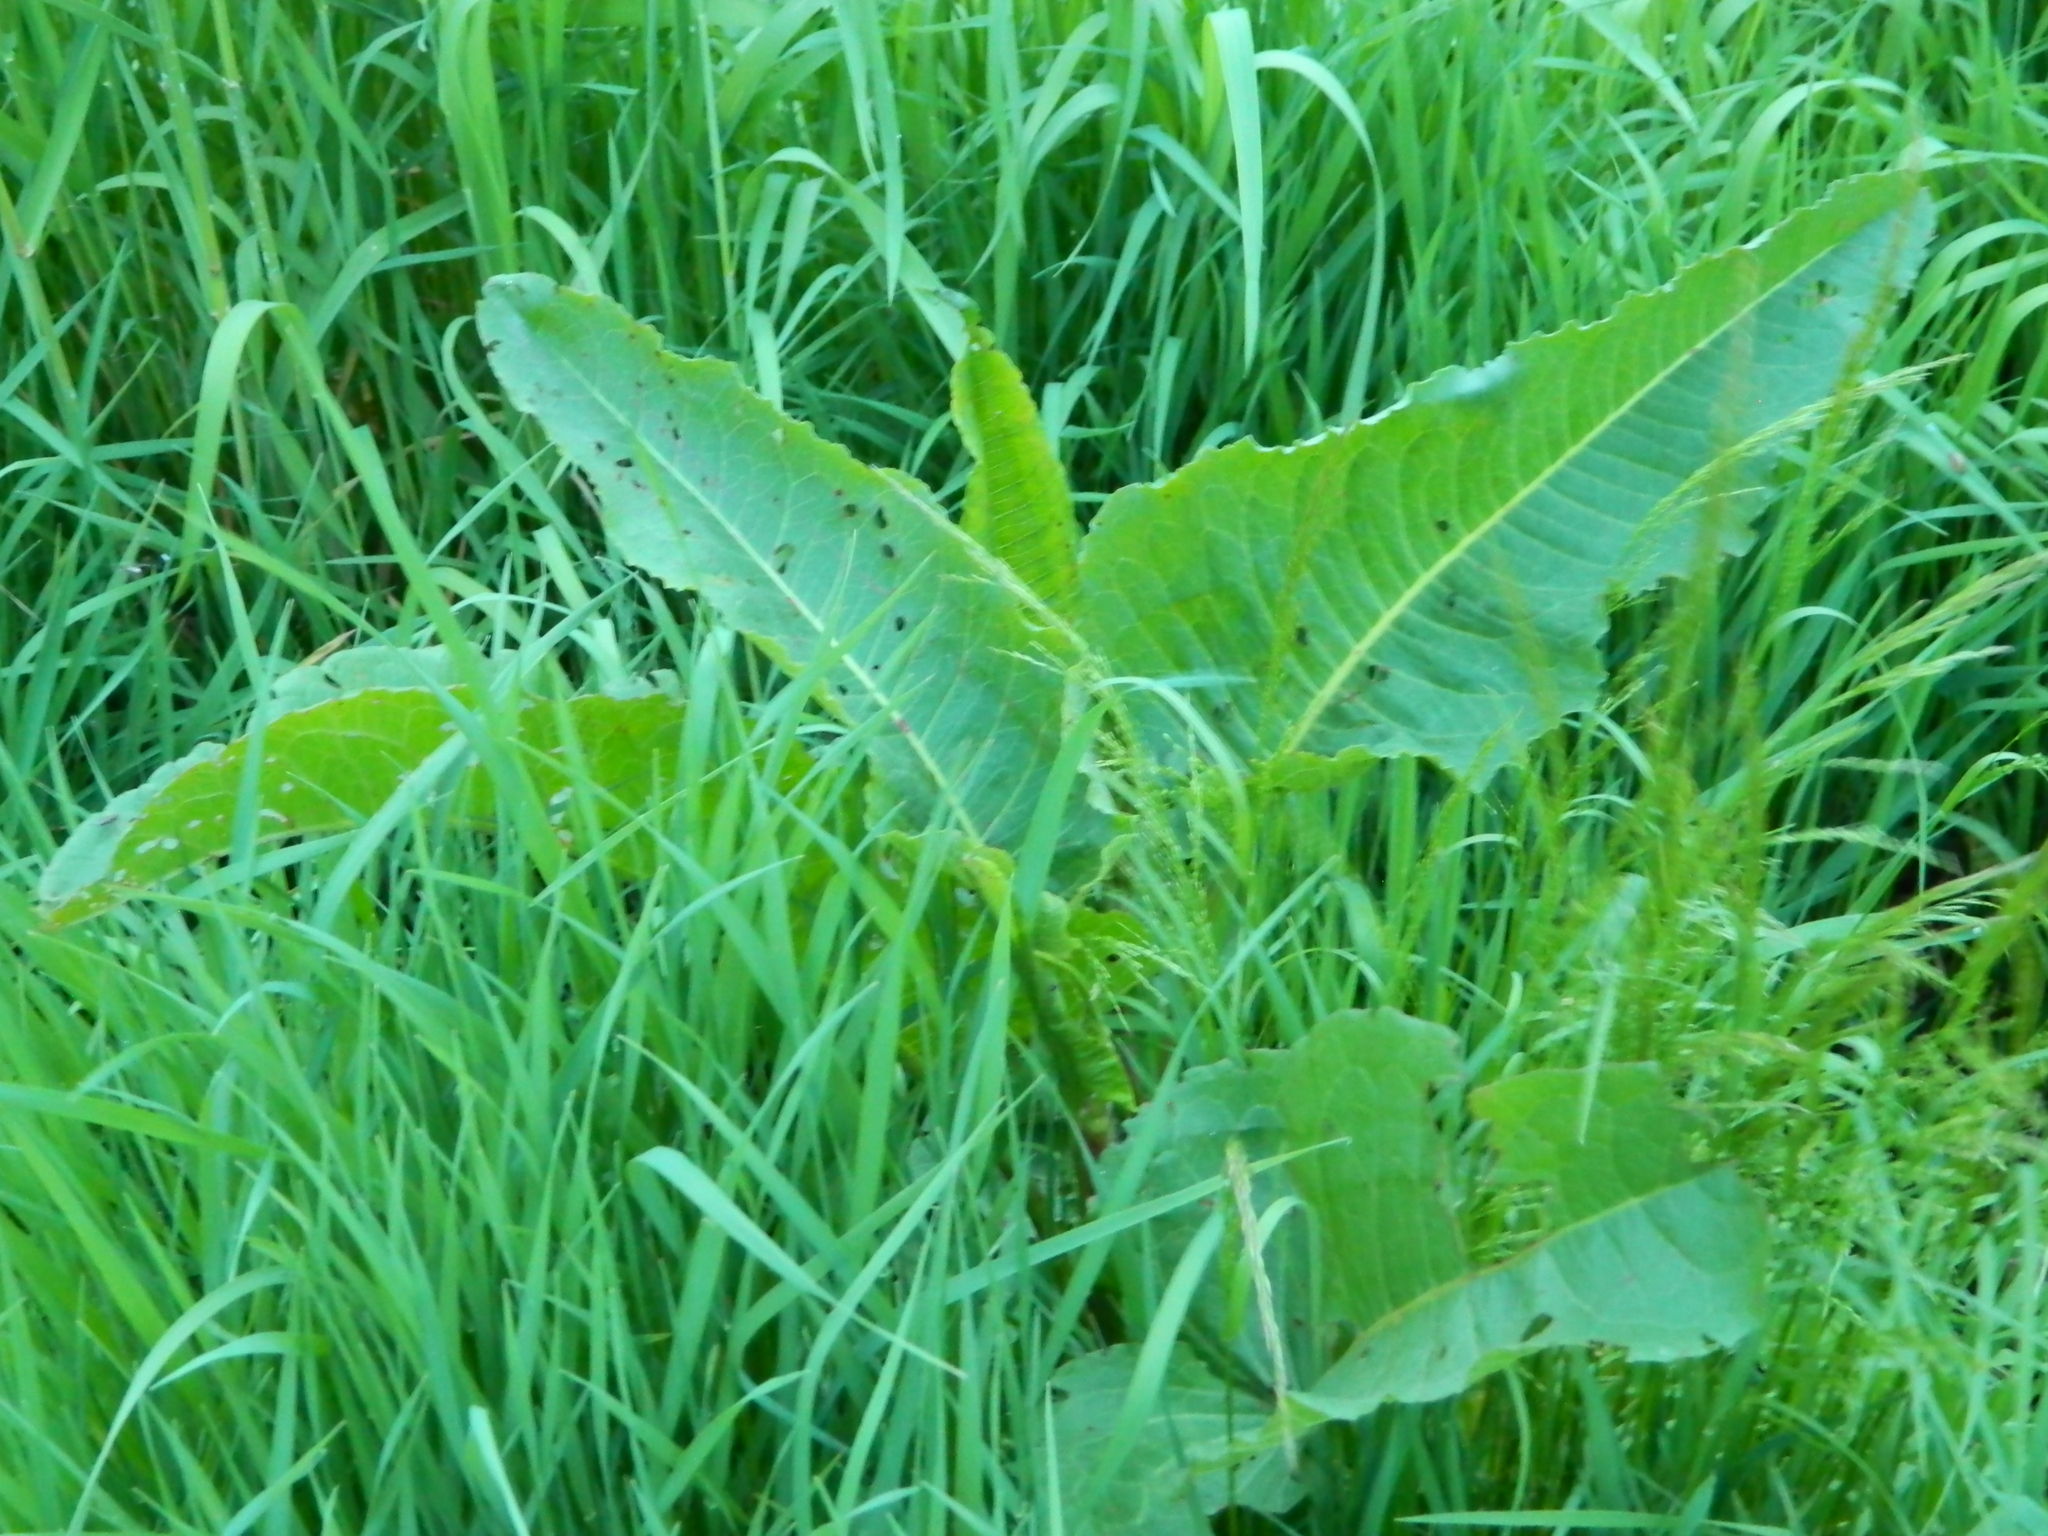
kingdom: Plantae
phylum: Tracheophyta
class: Magnoliopsida
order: Caryophyllales
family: Polygonaceae
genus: Rumex
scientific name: Rumex aquaticus
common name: Scottish dock
